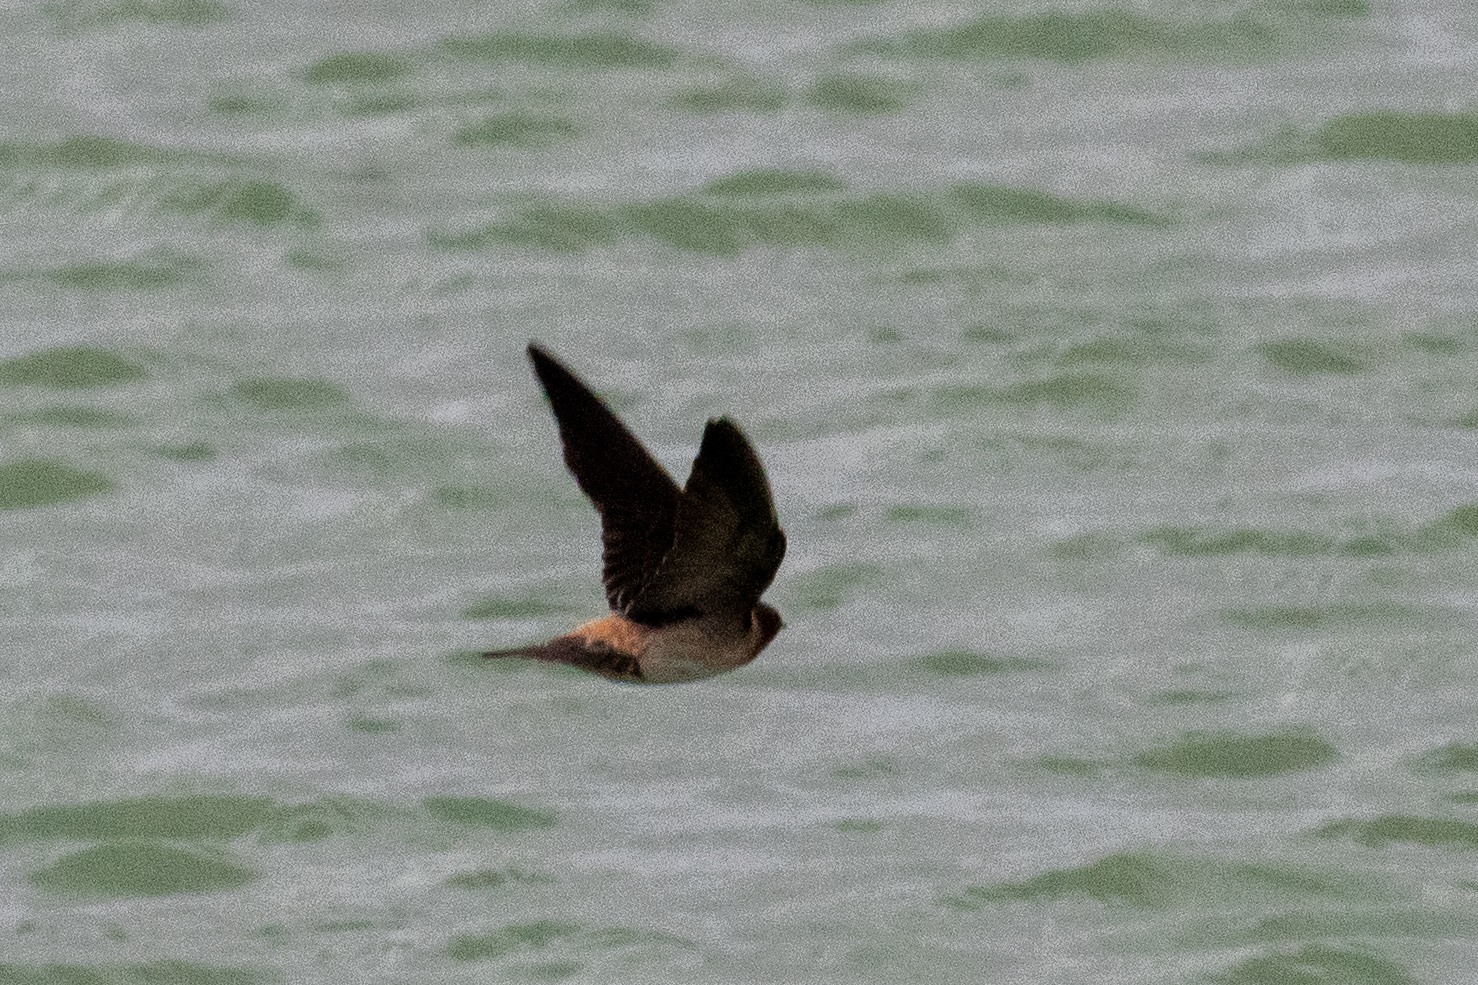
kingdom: Animalia
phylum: Chordata
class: Aves
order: Passeriformes
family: Hirundinidae
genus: Petrochelidon
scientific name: Petrochelidon pyrrhonota
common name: American cliff swallow
